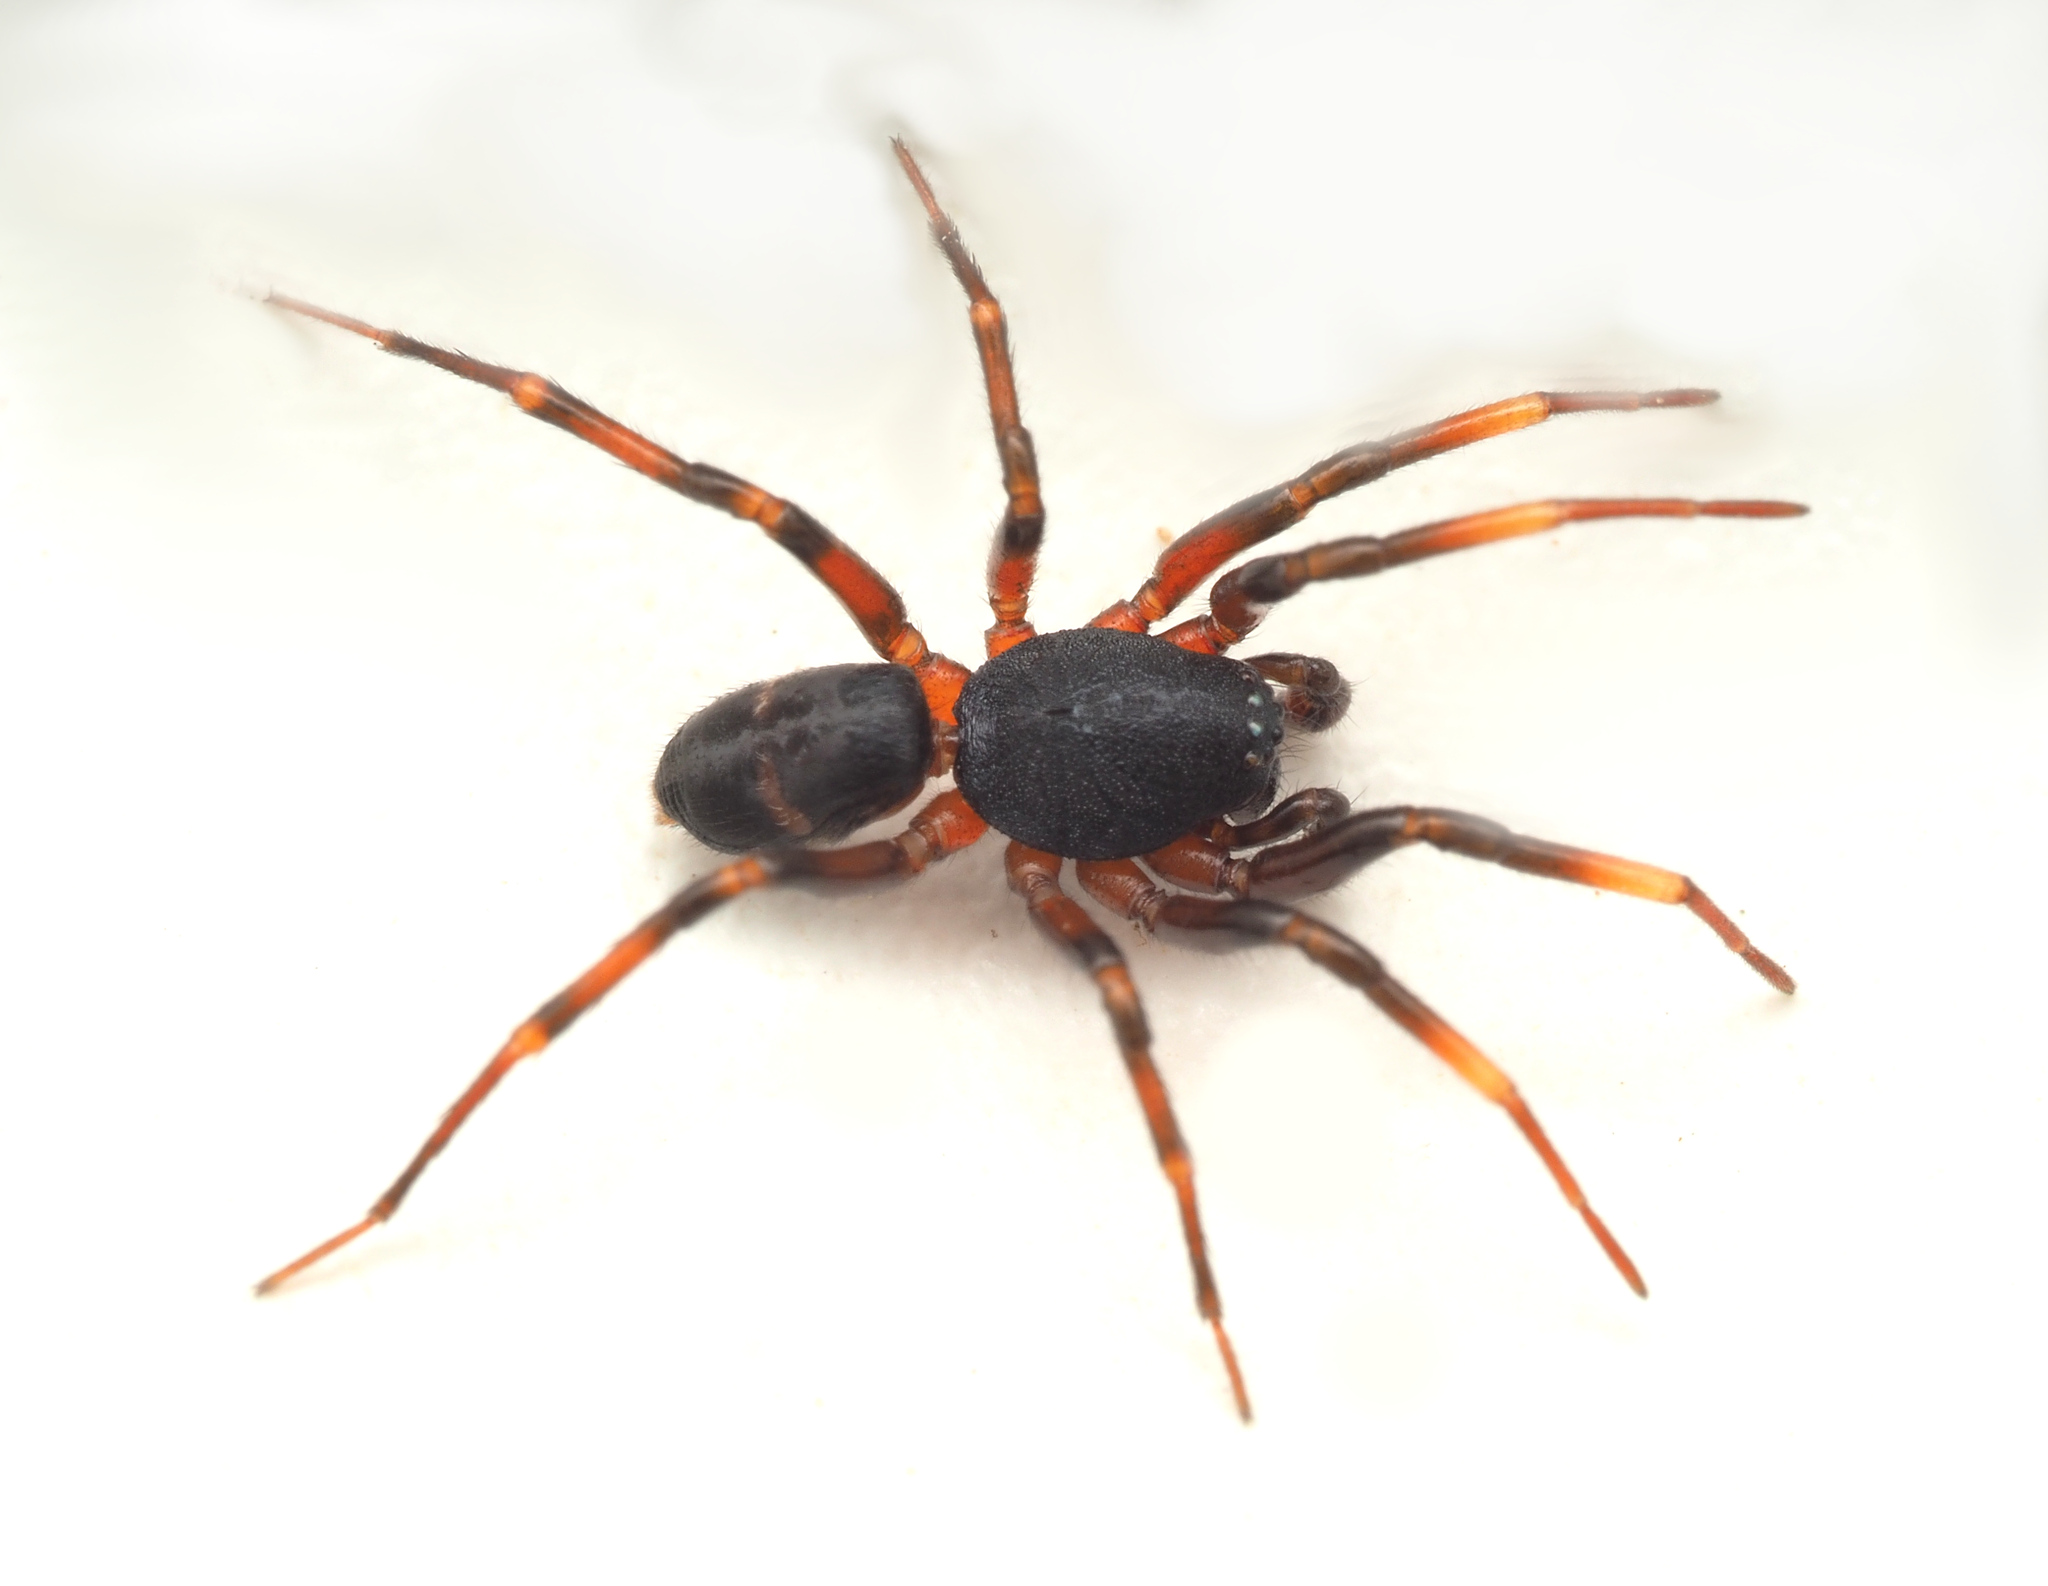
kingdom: Animalia
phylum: Arthropoda
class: Arachnida
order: Araneae
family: Lamponidae
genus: Graycassis
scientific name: Graycassis chichester
